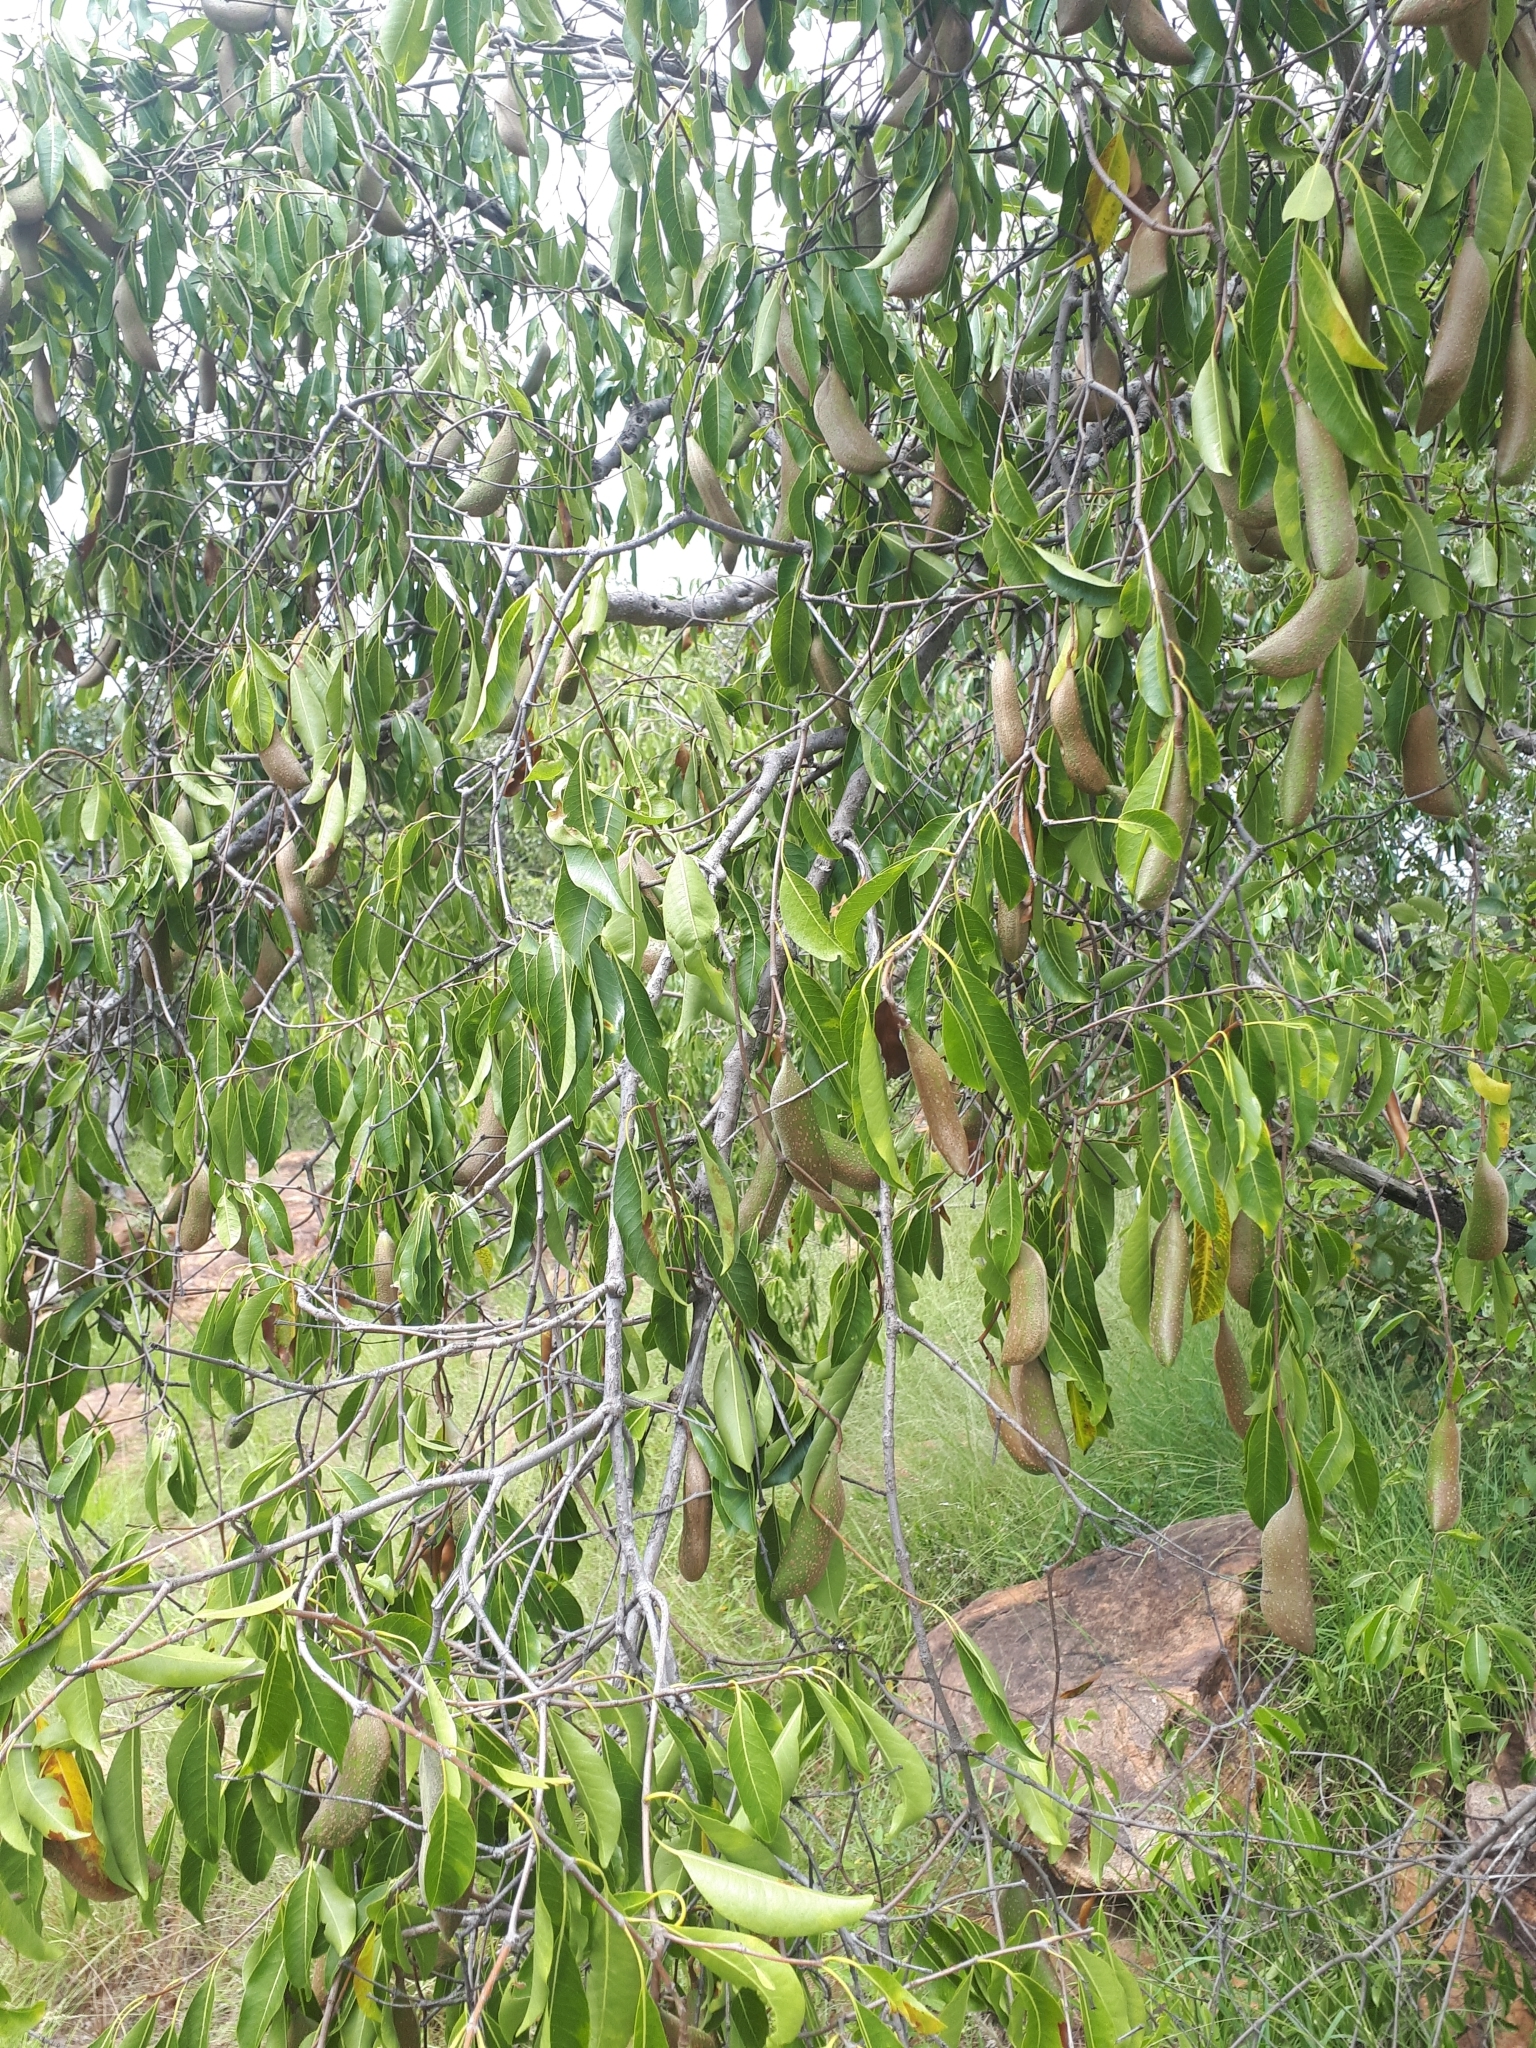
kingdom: Plantae
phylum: Tracheophyta
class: Magnoliopsida
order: Gentianales
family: Apocynaceae
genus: Diplorhynchus
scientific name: Diplorhynchus condylocarpon
